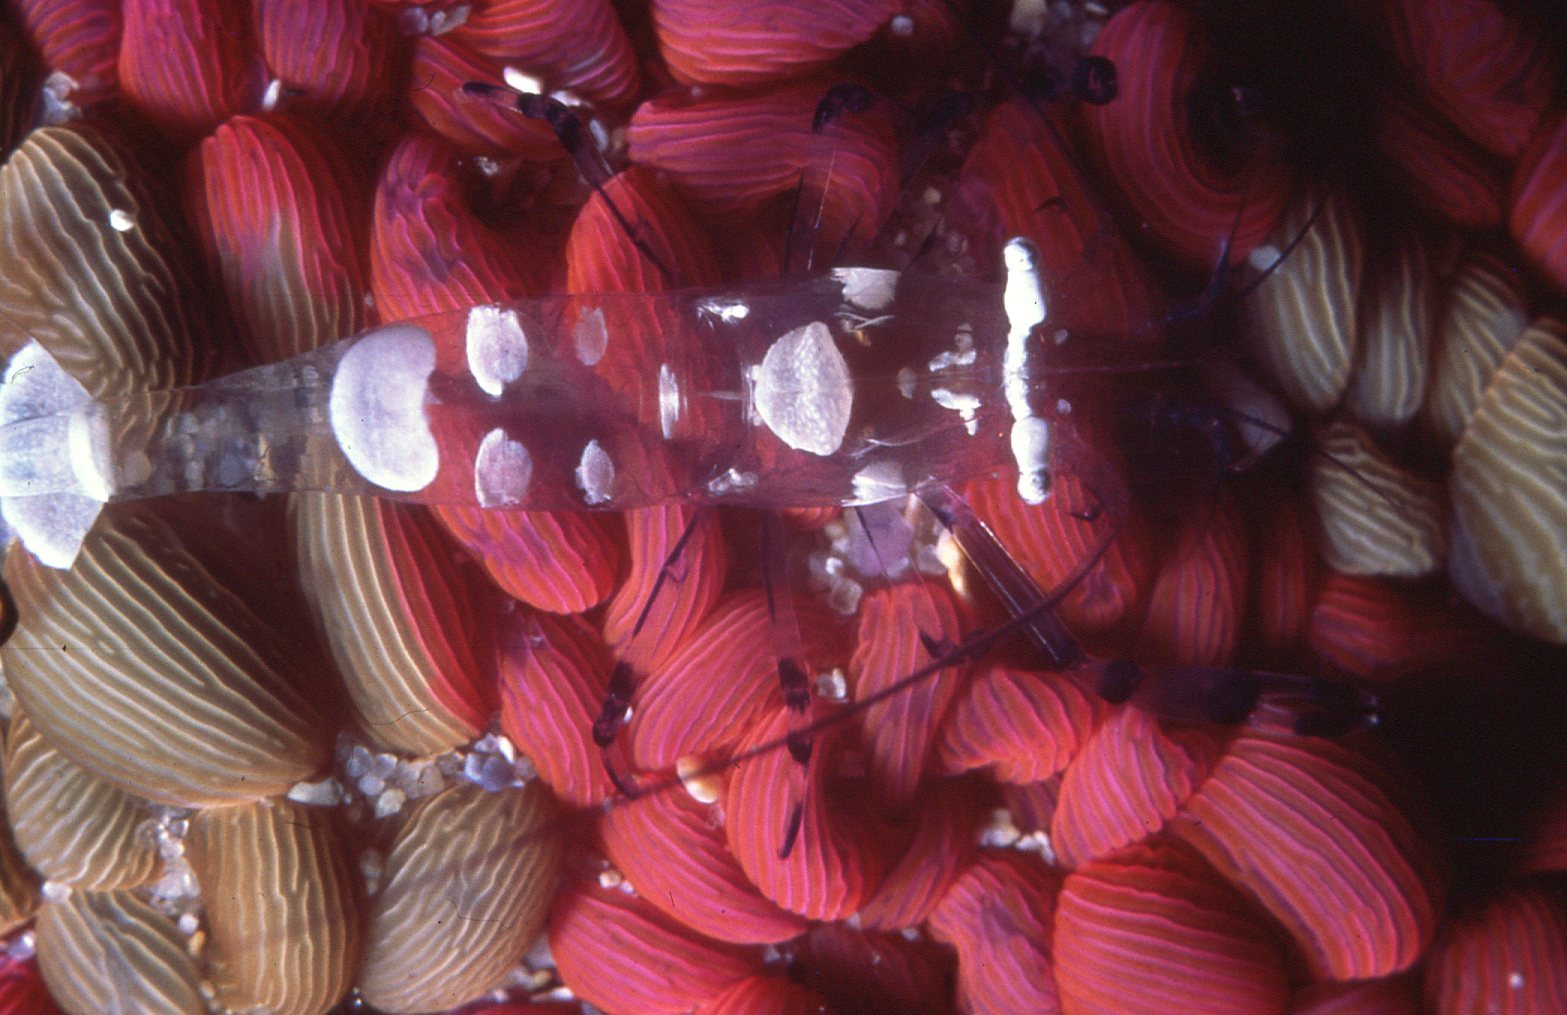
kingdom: Animalia
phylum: Arthropoda
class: Malacostraca
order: Decapoda
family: Palaemonidae
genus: Ancylocaris
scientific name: Ancylocaris brevicarpalis
